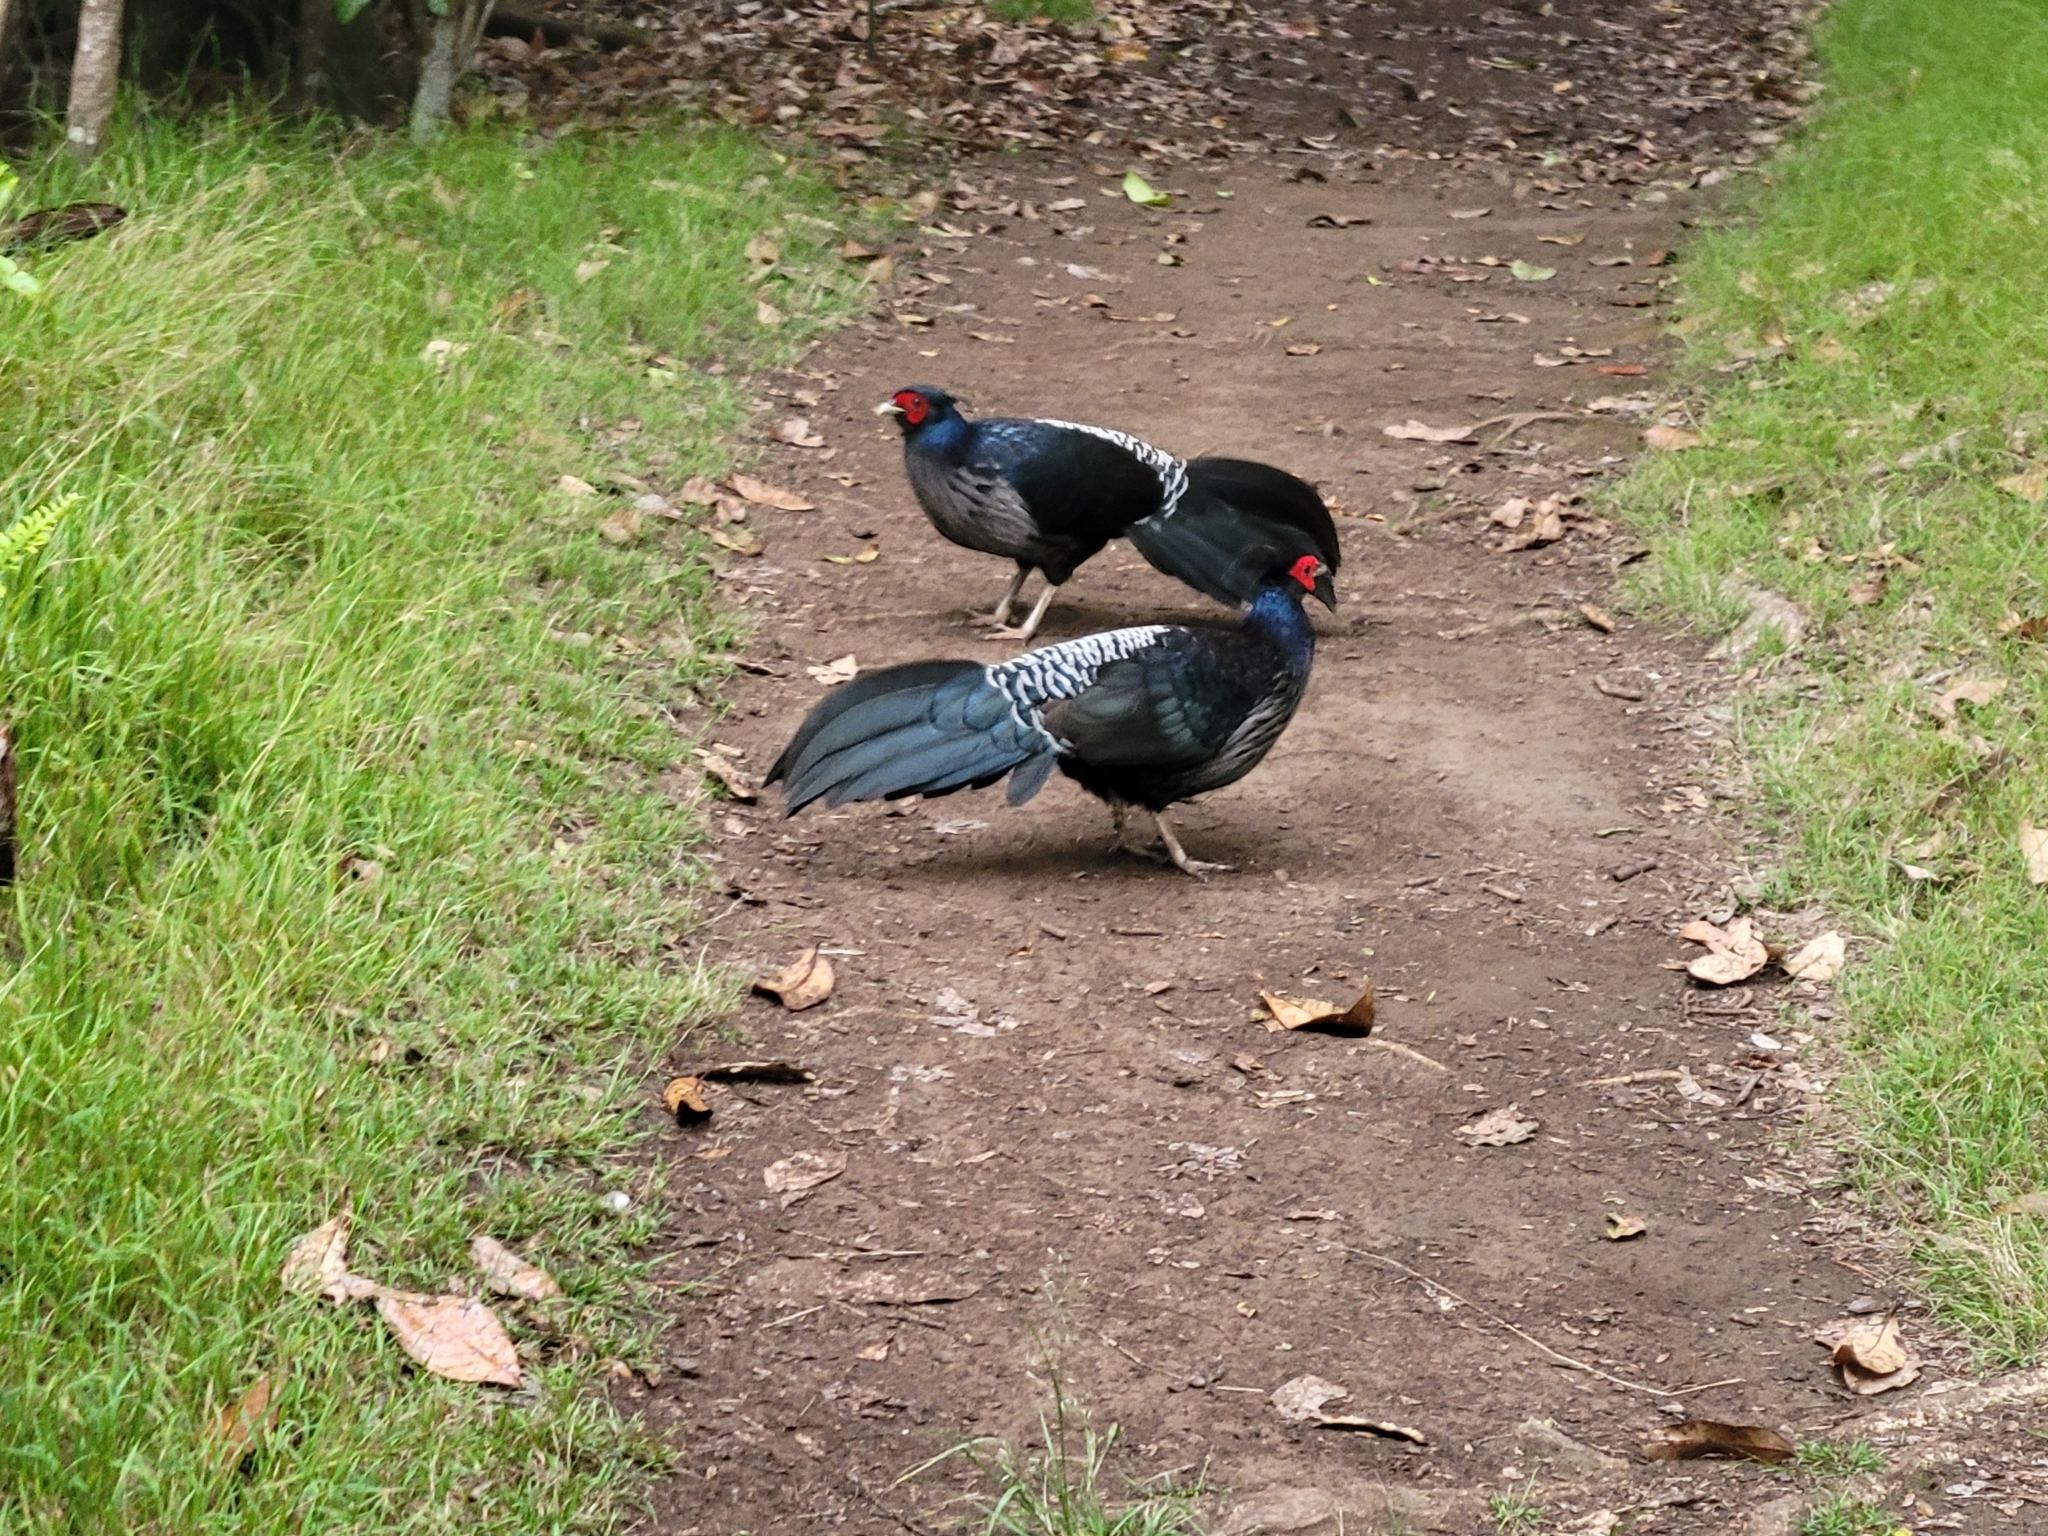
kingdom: Animalia
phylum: Chordata
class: Aves
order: Galliformes
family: Phasianidae
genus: Lophura
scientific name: Lophura leucomelanos
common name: Kalij pheasant
